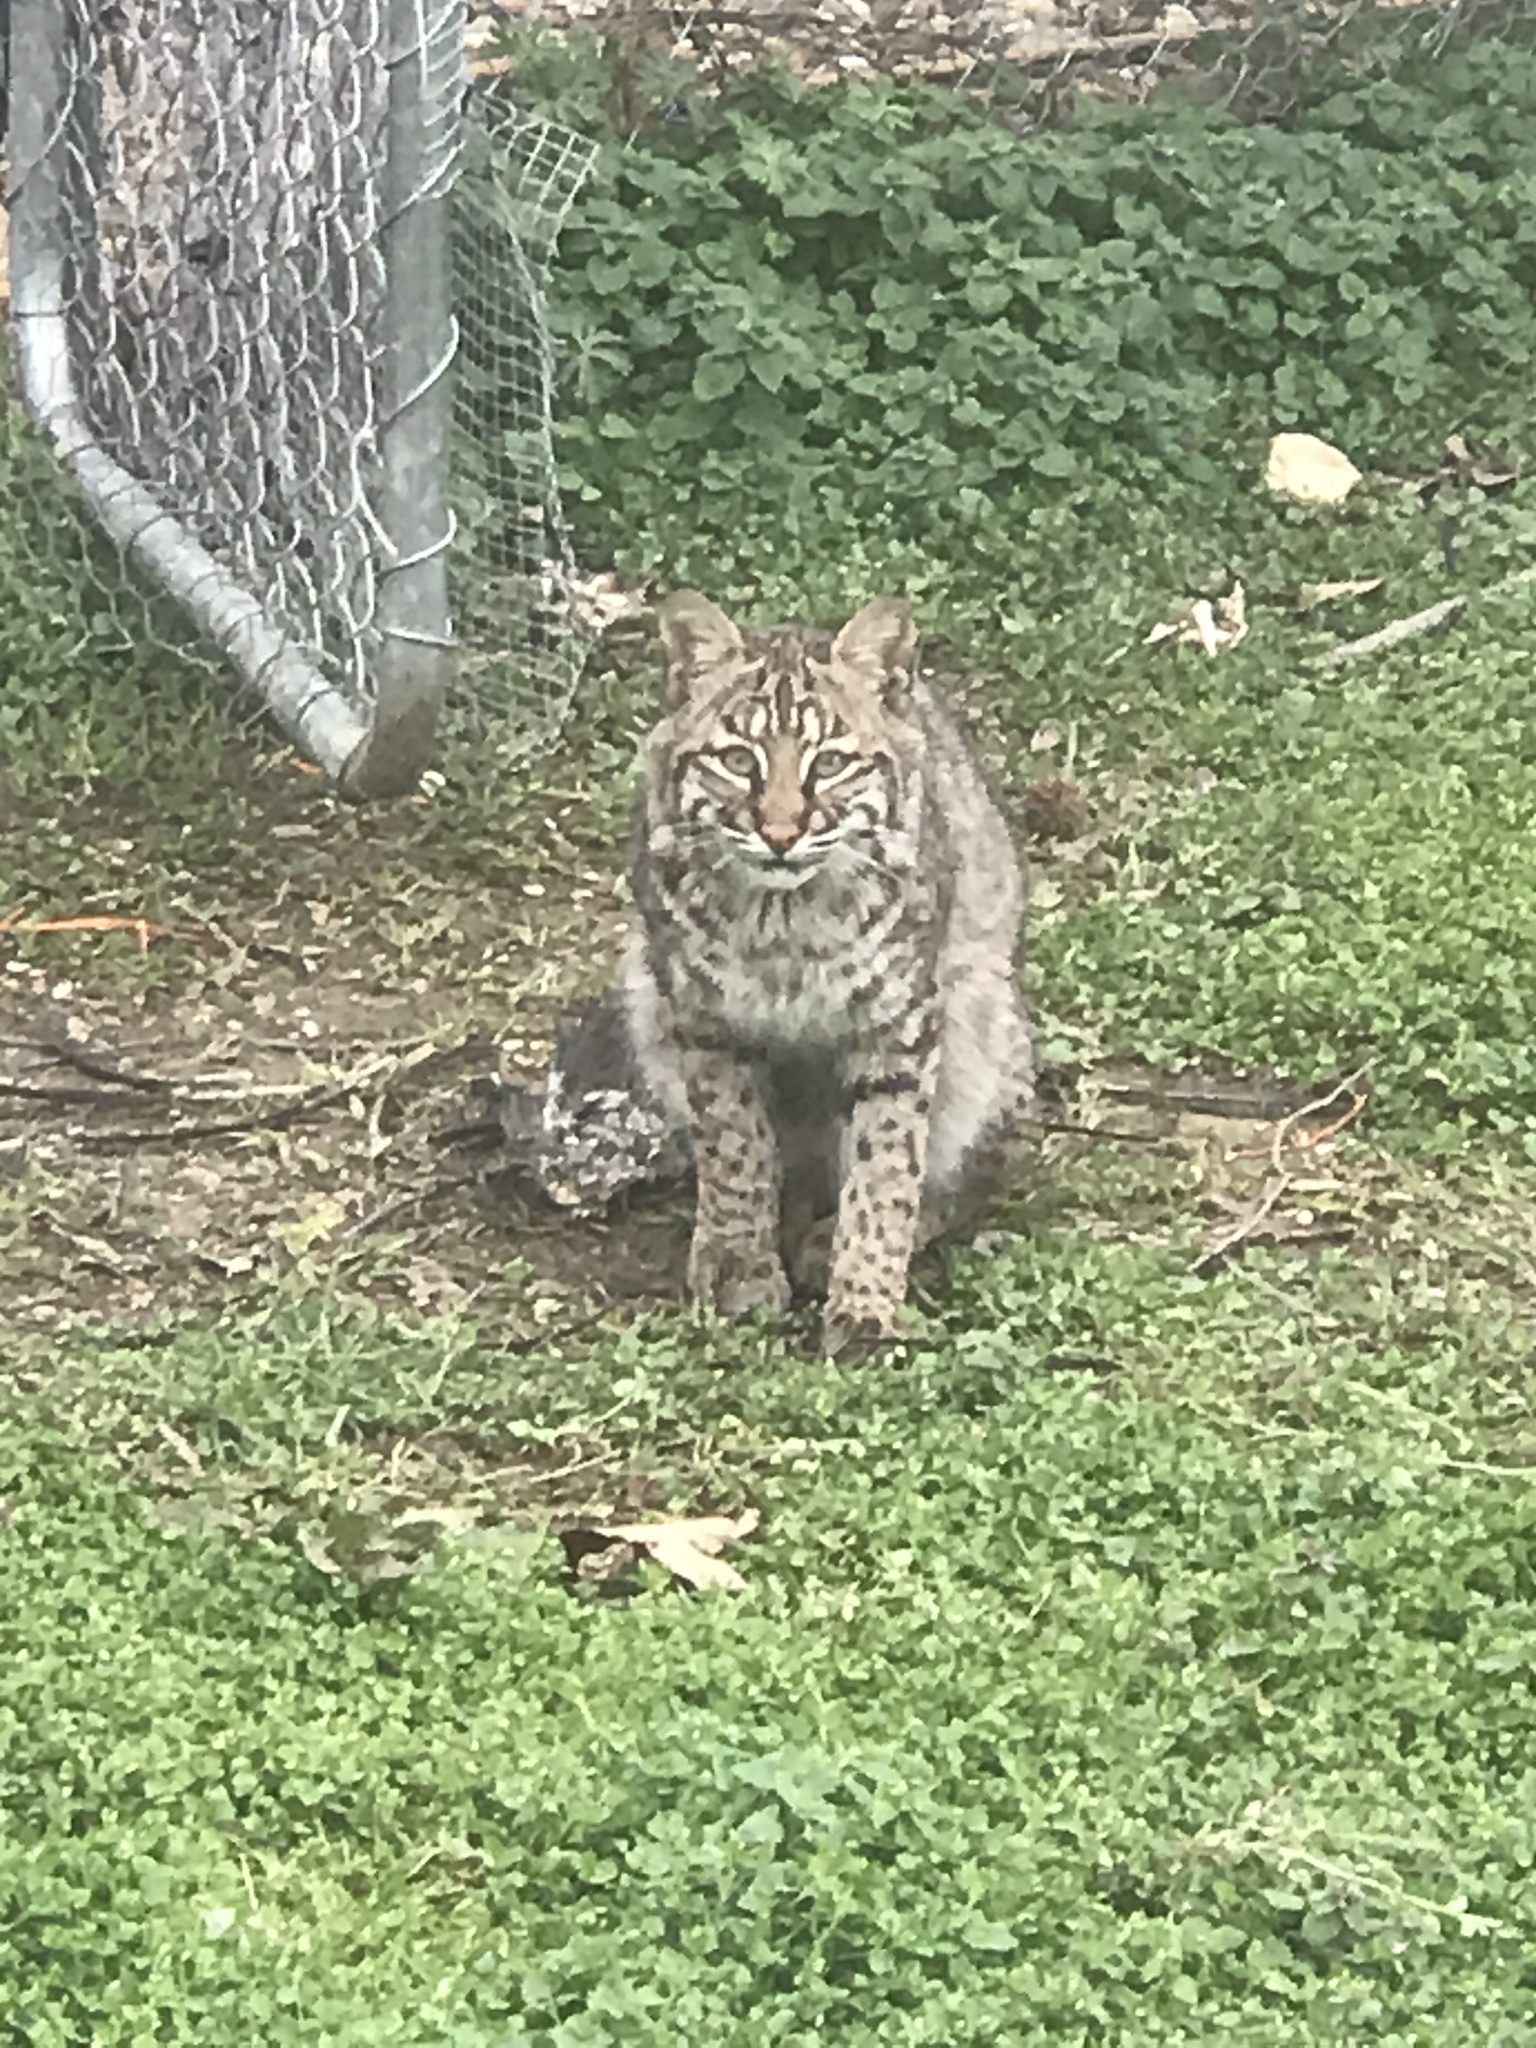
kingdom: Animalia
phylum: Chordata
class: Mammalia
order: Carnivora
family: Felidae
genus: Lynx
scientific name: Lynx rufus
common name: Bobcat
